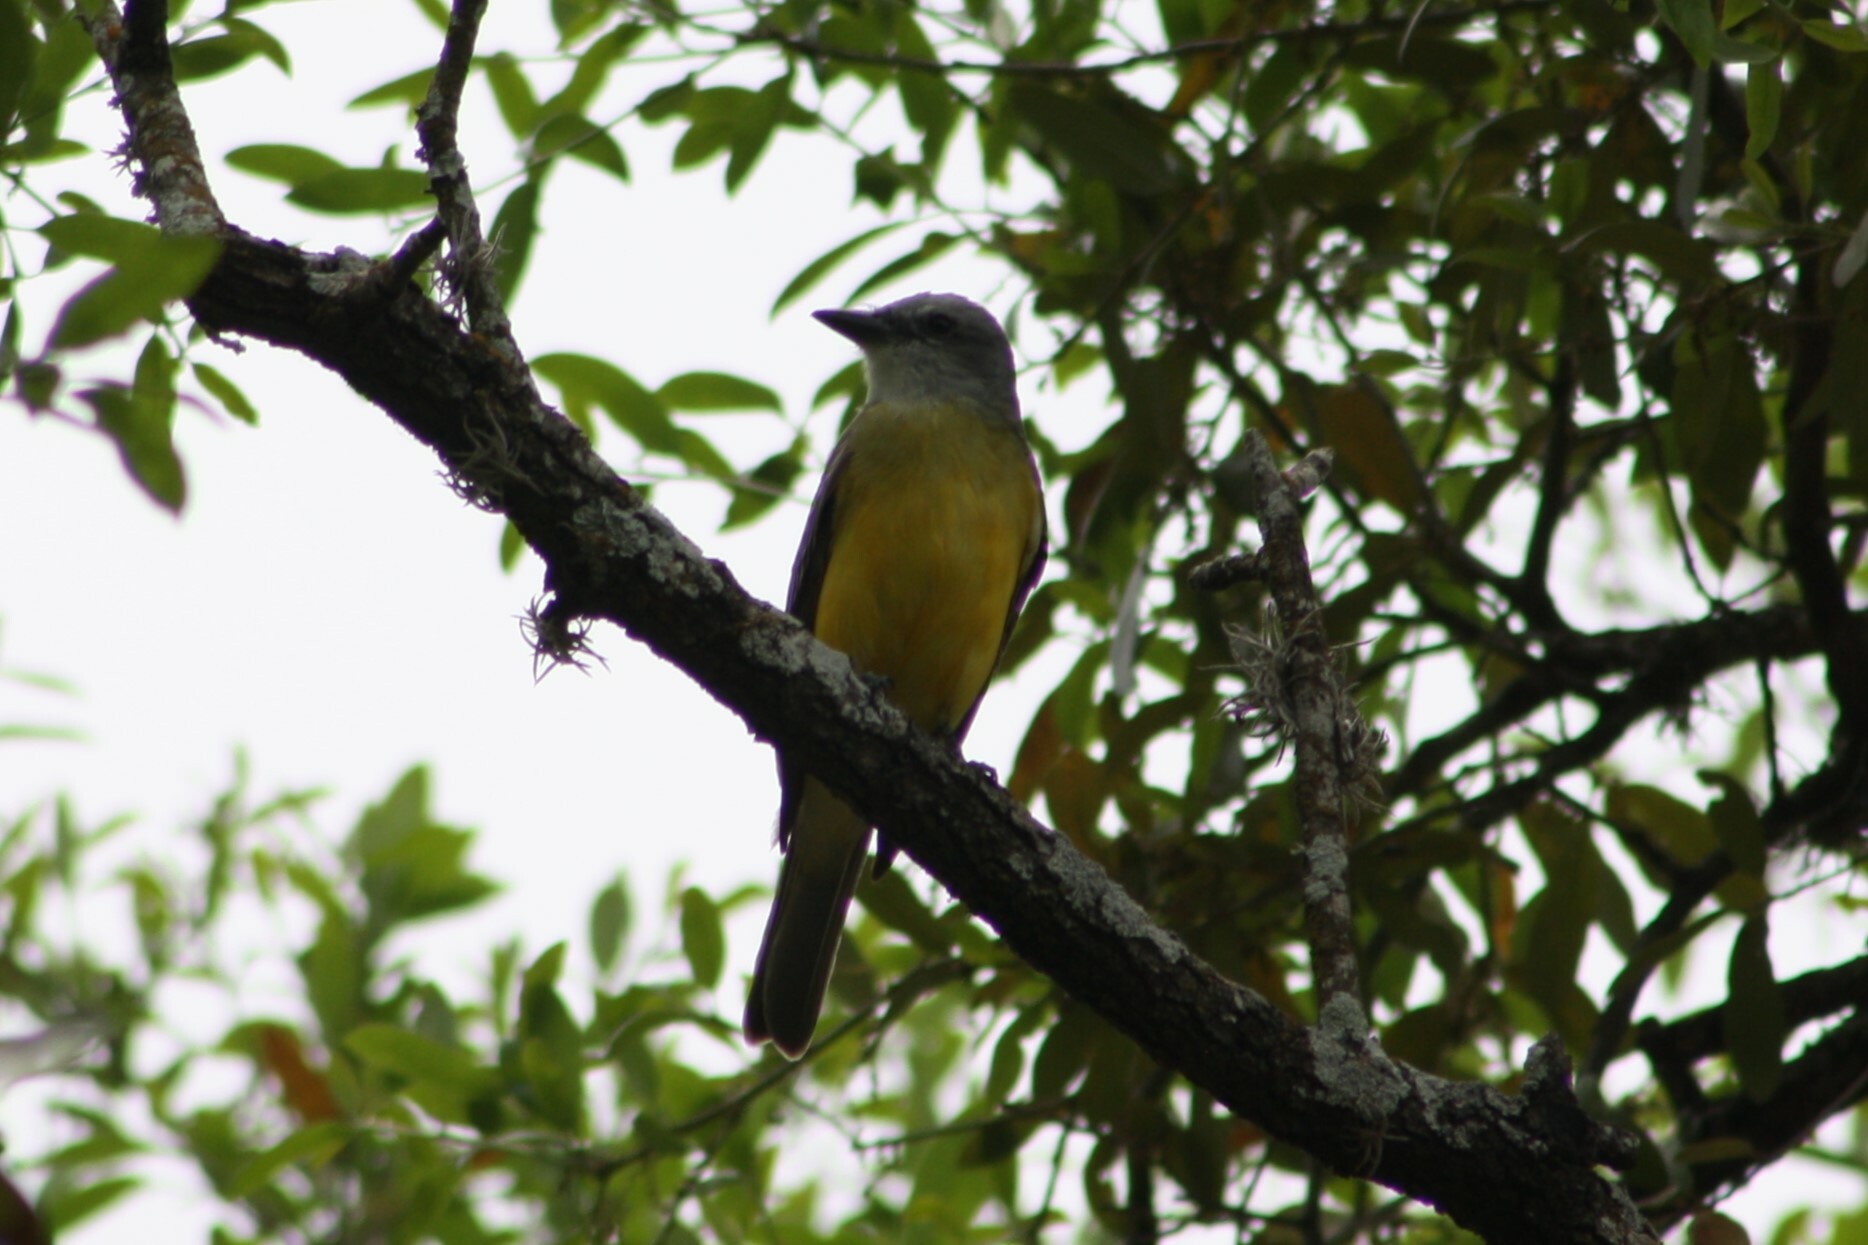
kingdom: Animalia
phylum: Chordata
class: Aves
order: Passeriformes
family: Tyrannidae
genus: Tyrannus
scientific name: Tyrannus couchii
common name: Couch's kingbird
